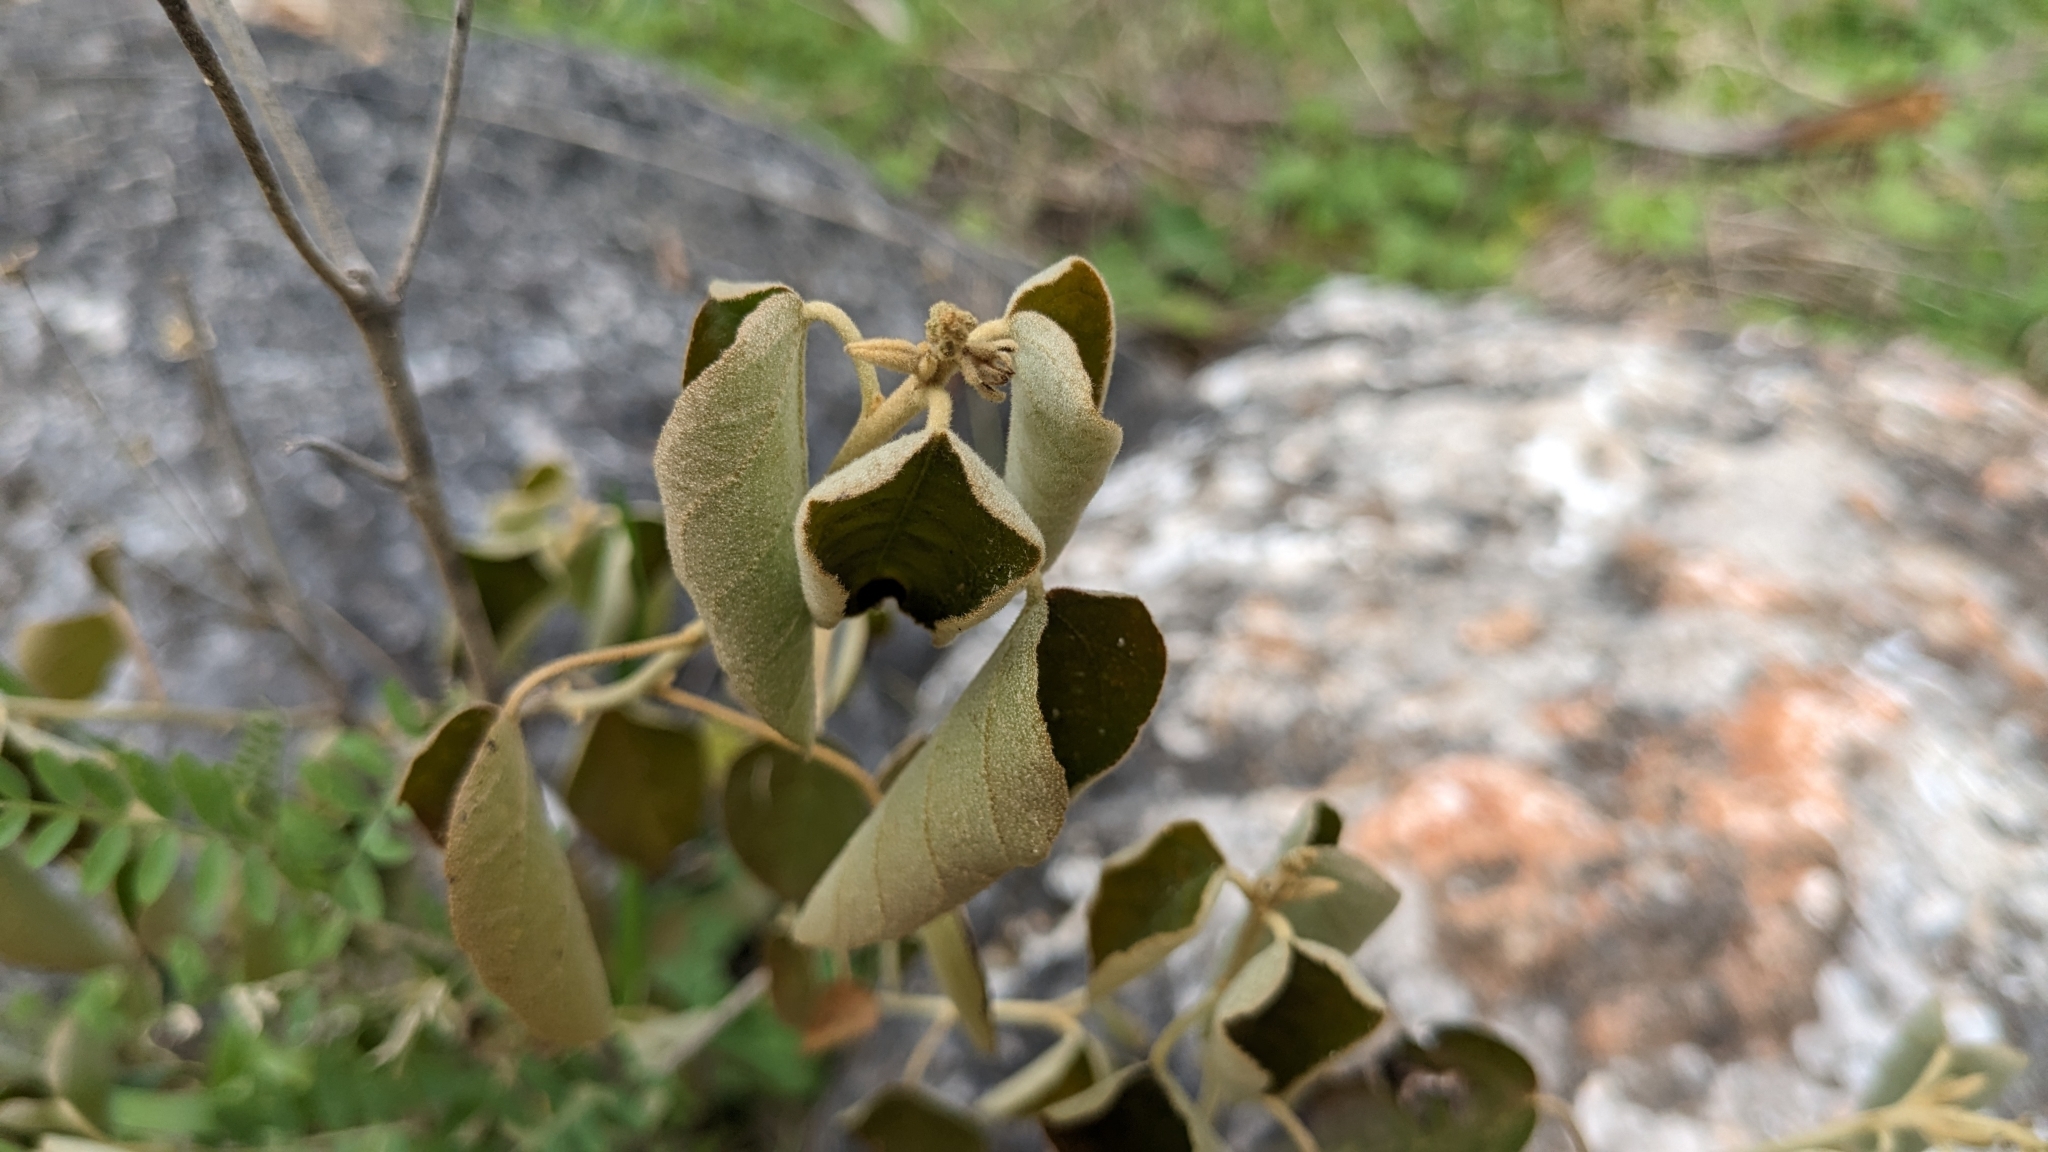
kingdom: Plantae
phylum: Tracheophyta
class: Magnoliopsida
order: Malpighiales
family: Euphorbiaceae
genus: Croton
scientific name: Croton fruticulosus
